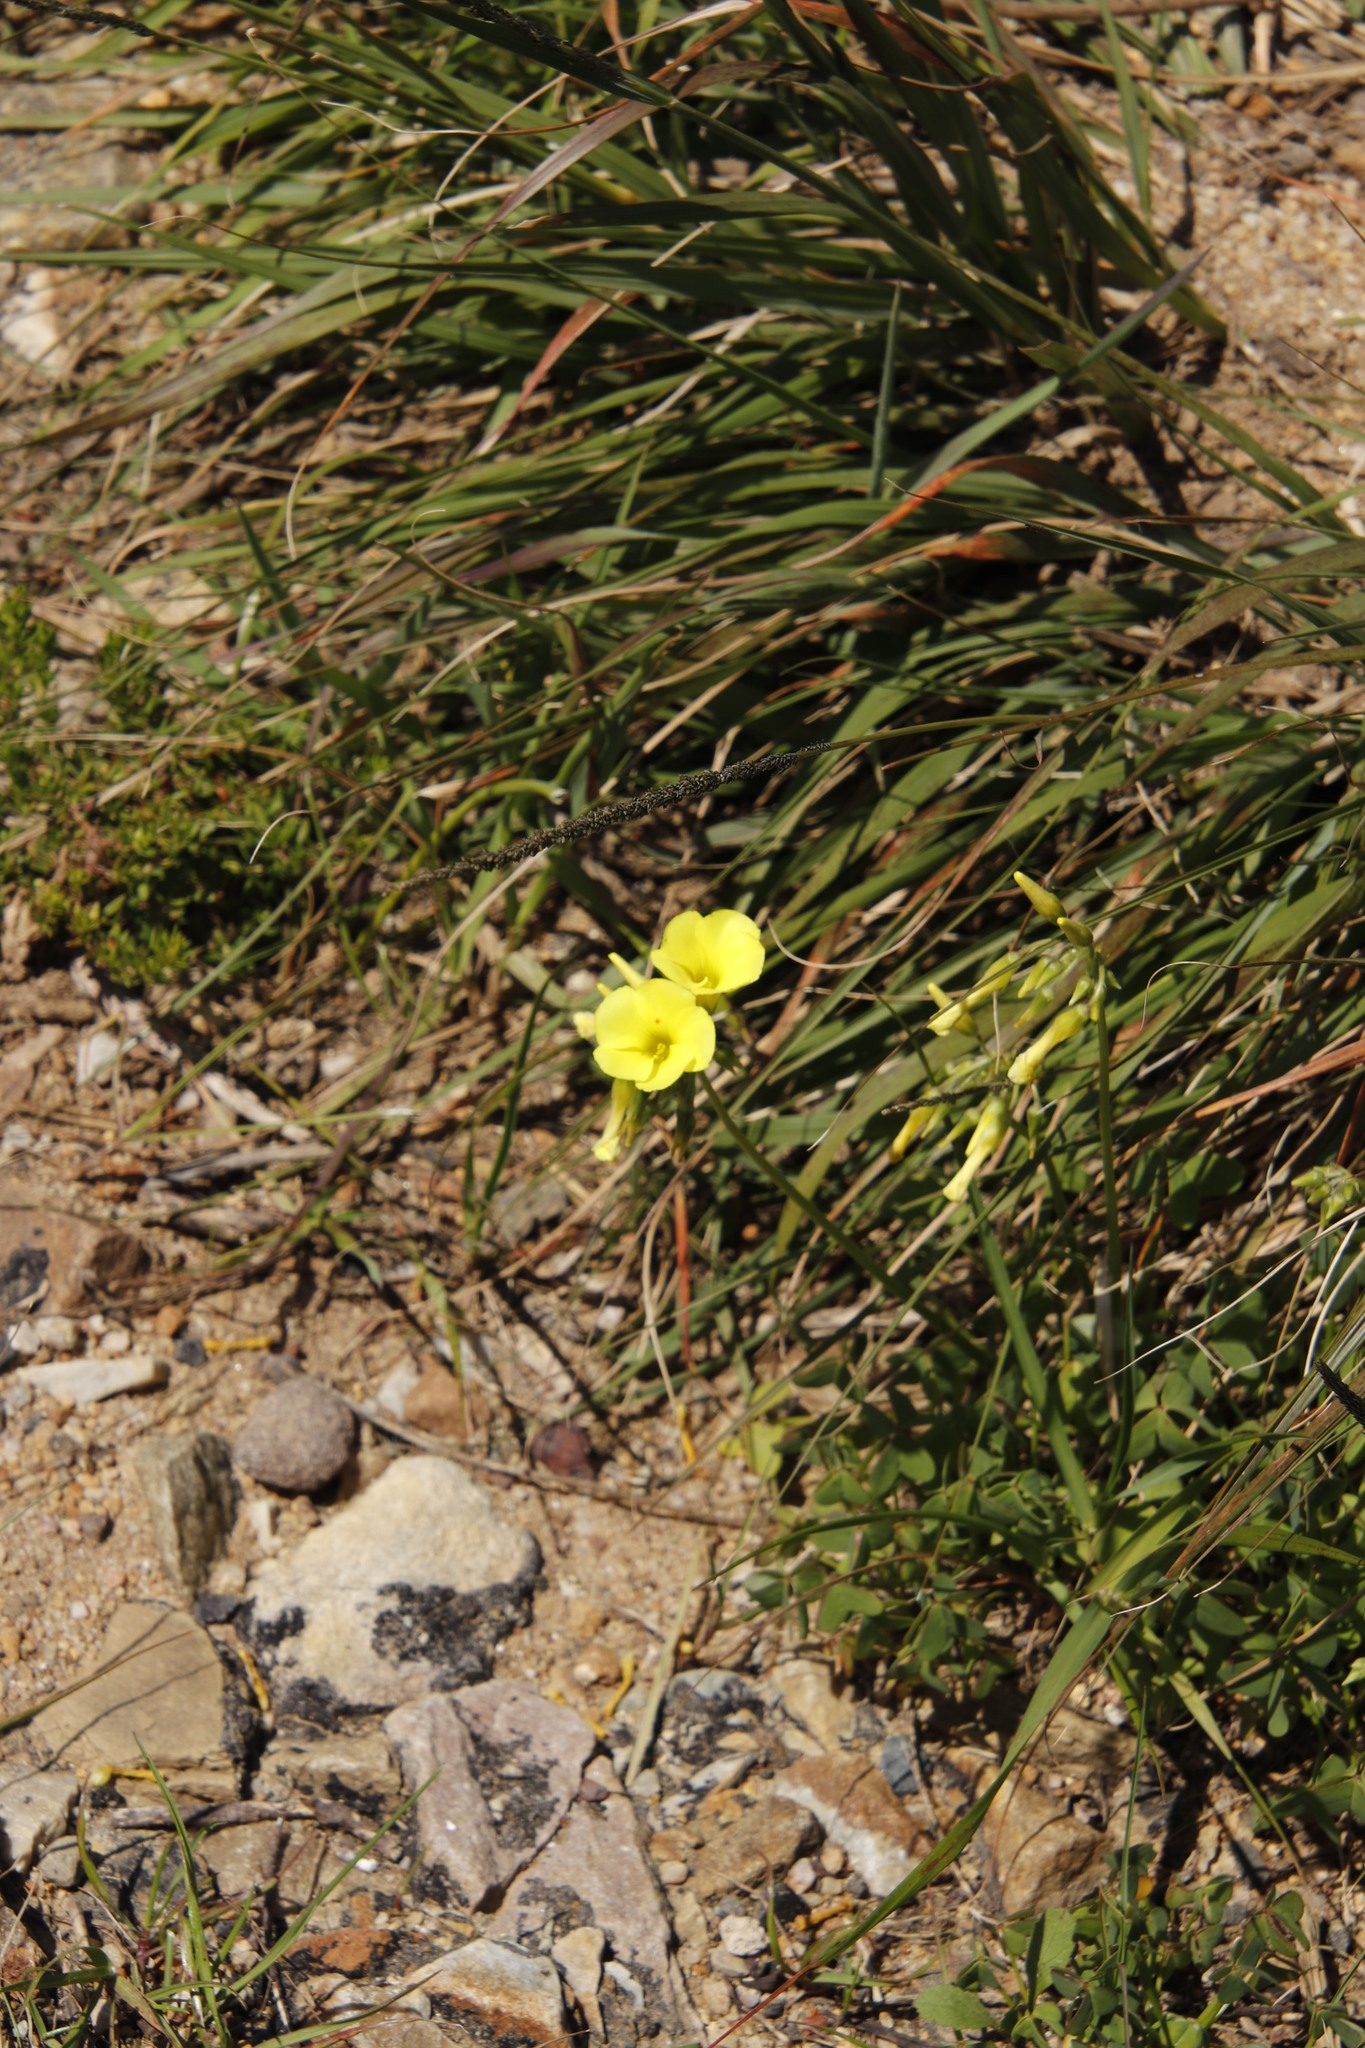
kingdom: Plantae
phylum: Tracheophyta
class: Magnoliopsida
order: Oxalidales
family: Oxalidaceae
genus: Oxalis
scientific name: Oxalis pes-caprae
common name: Bermuda-buttercup
